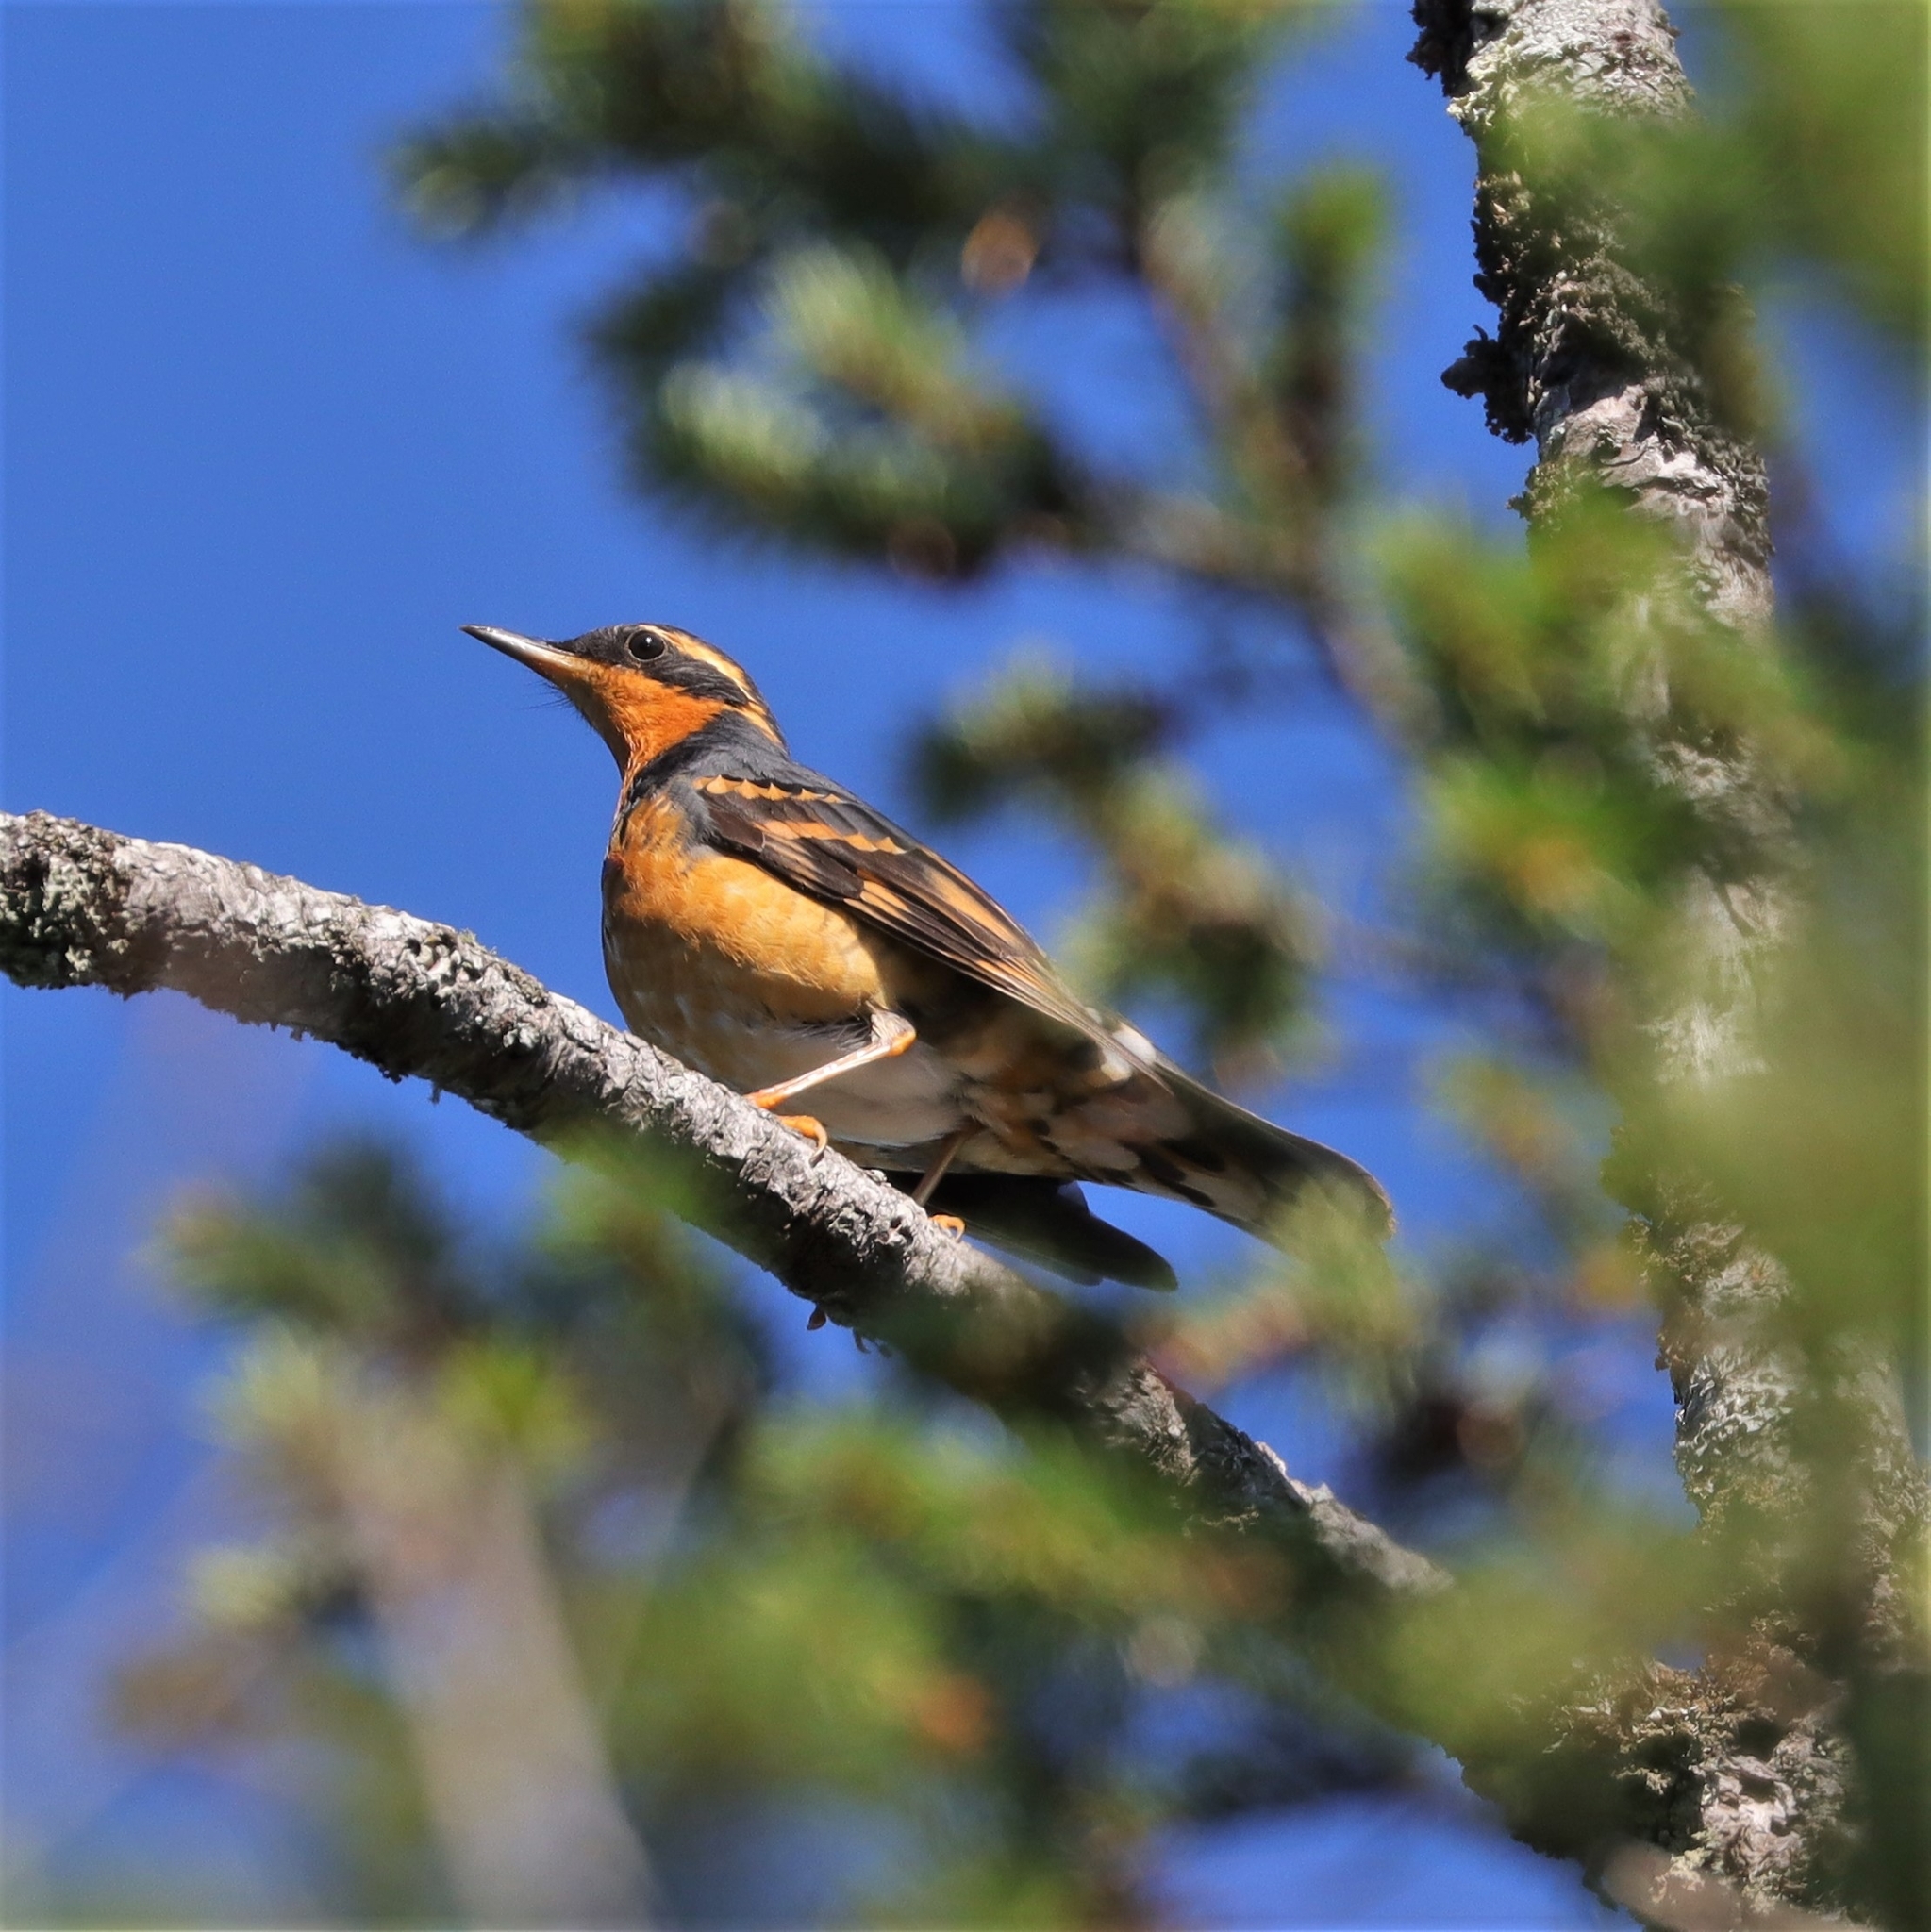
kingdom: Animalia
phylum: Chordata
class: Aves
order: Passeriformes
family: Turdidae
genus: Ixoreus
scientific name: Ixoreus naevius
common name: Varied thrush
